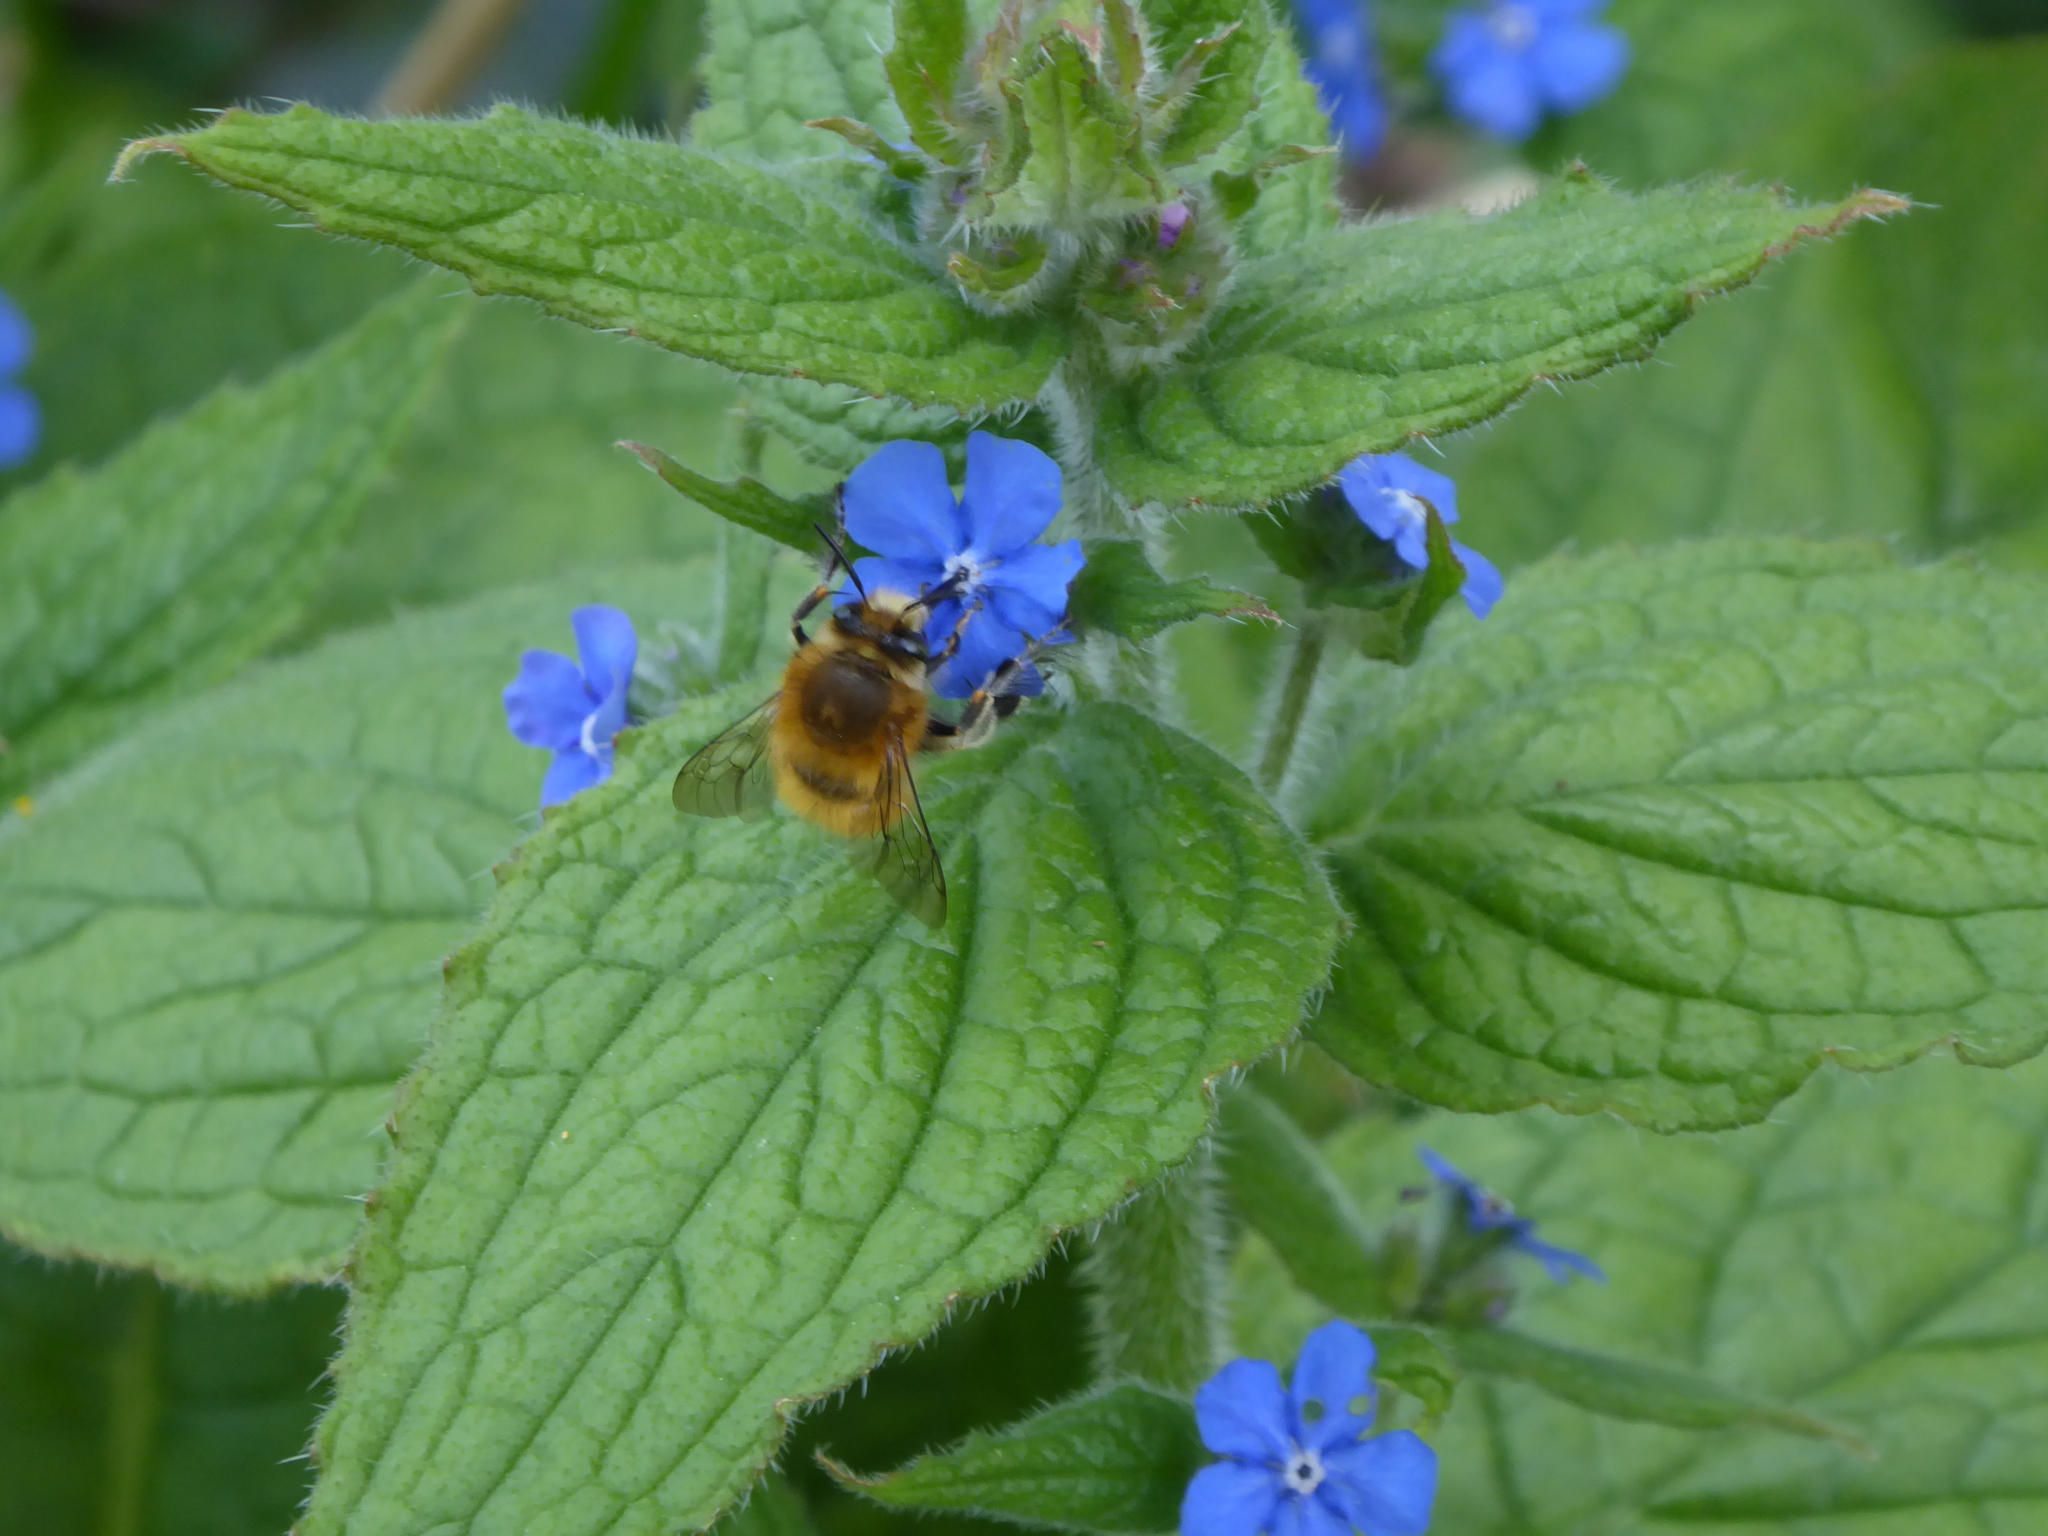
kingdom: Animalia
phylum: Arthropoda
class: Insecta
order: Hymenoptera
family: Apidae
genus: Anthophora
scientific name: Anthophora plumipes
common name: Hairy-footed flower bee
